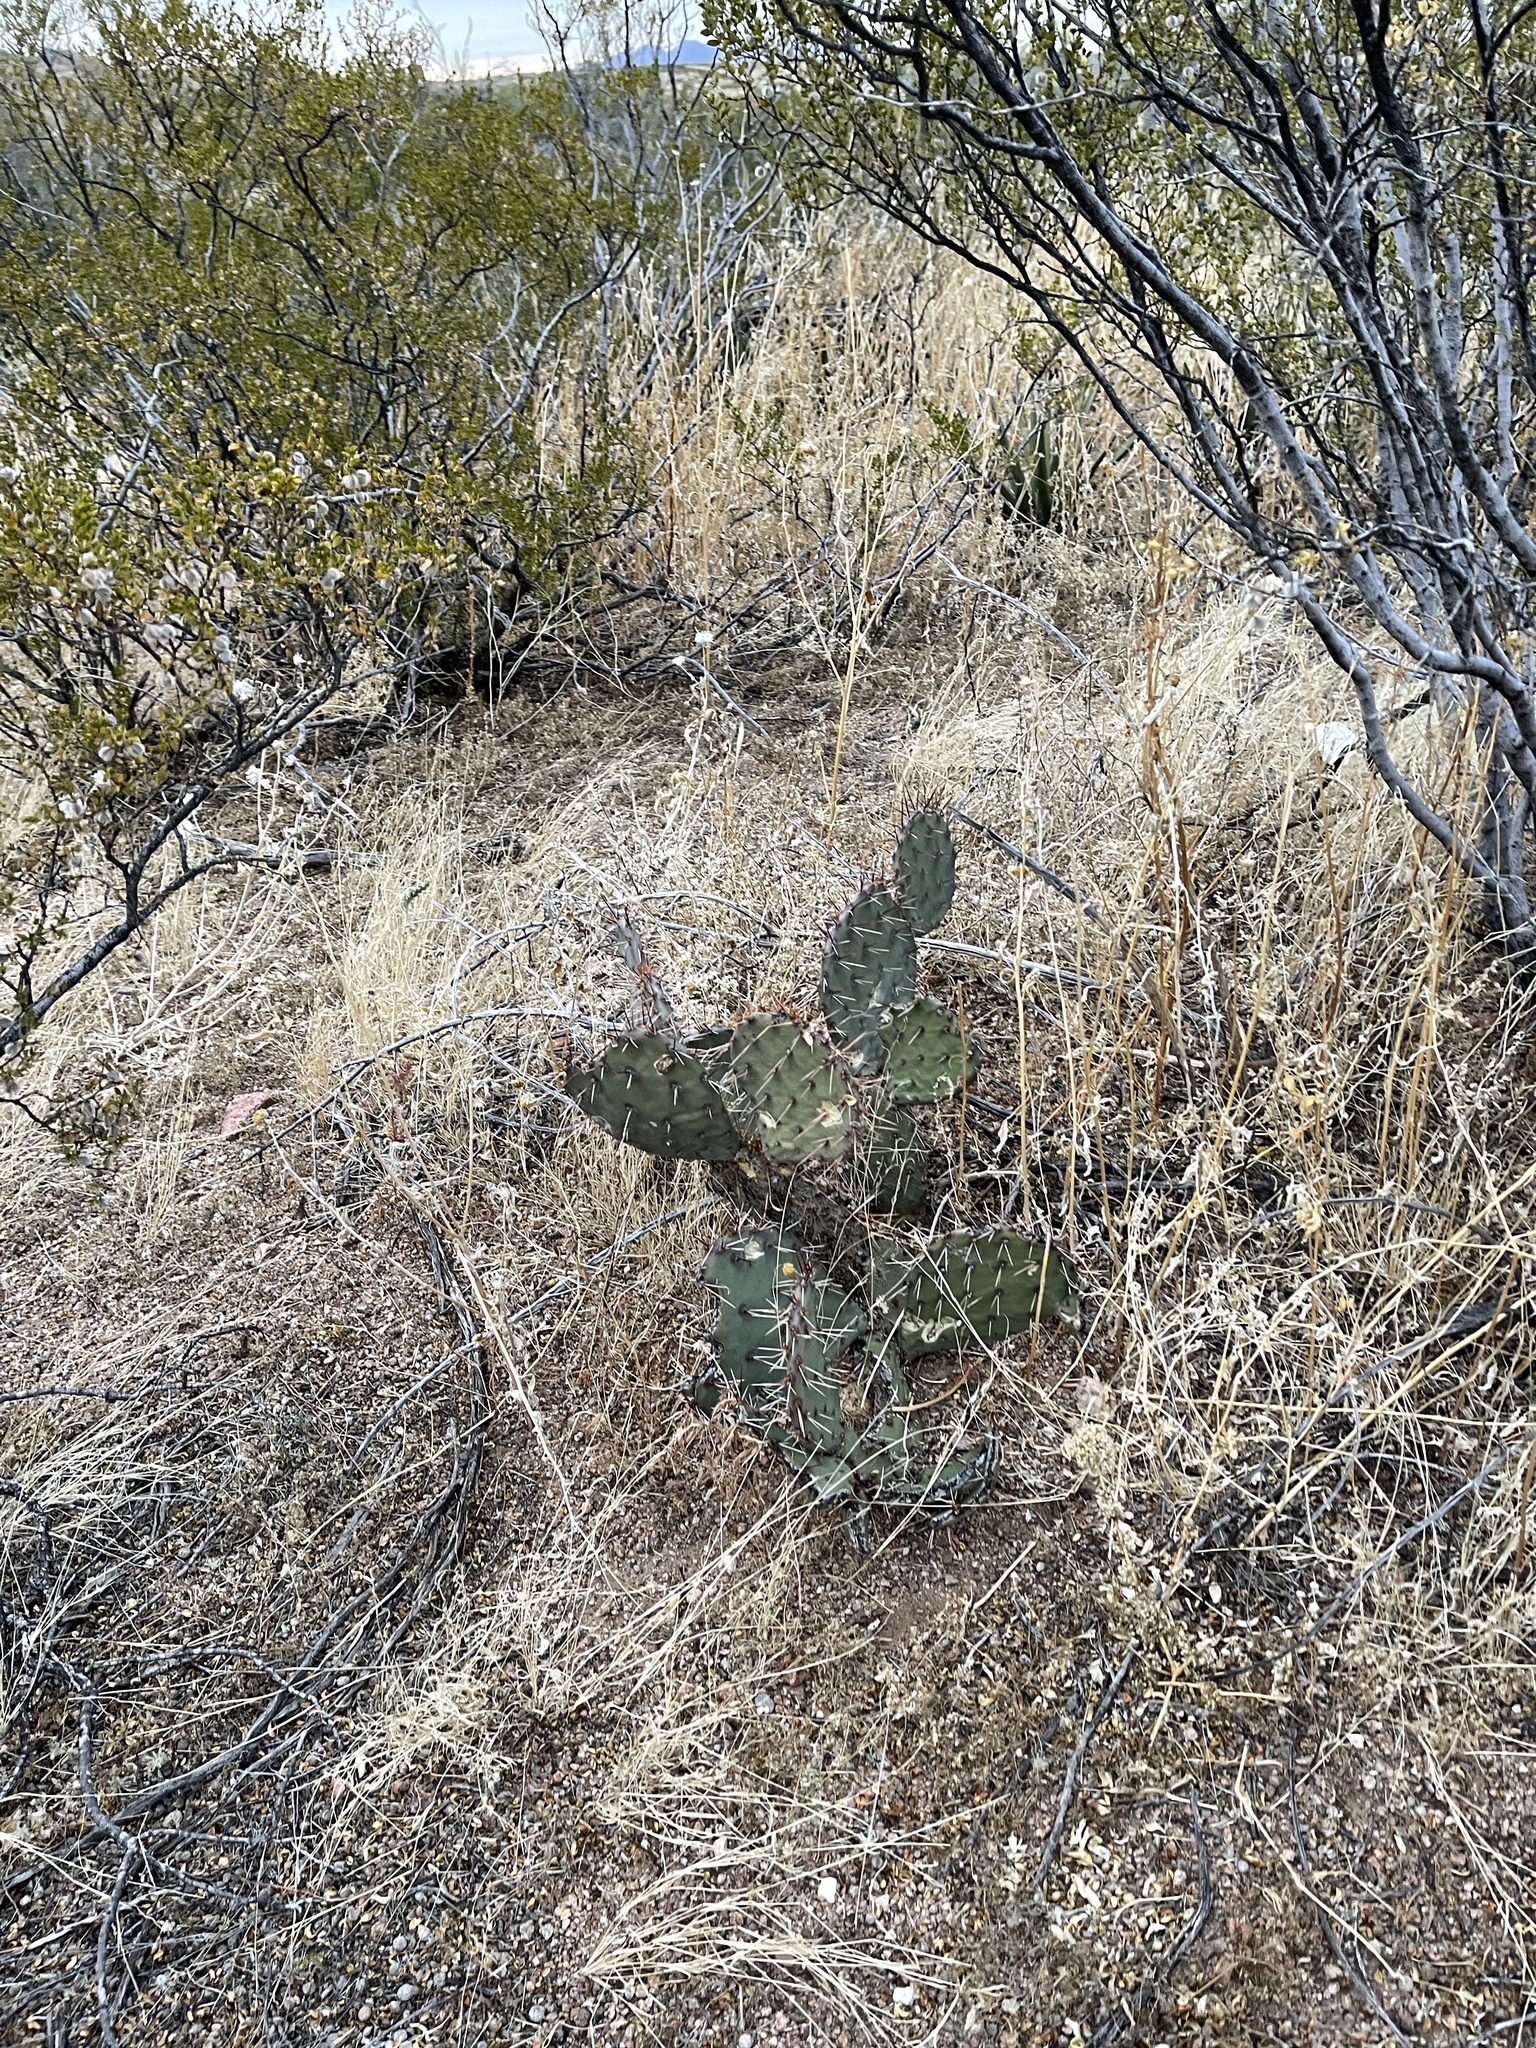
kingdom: Plantae
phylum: Tracheophyta
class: Magnoliopsida
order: Caryophyllales
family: Cactaceae
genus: Opuntia
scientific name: Opuntia macrocentra
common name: Purple prickly-pear
